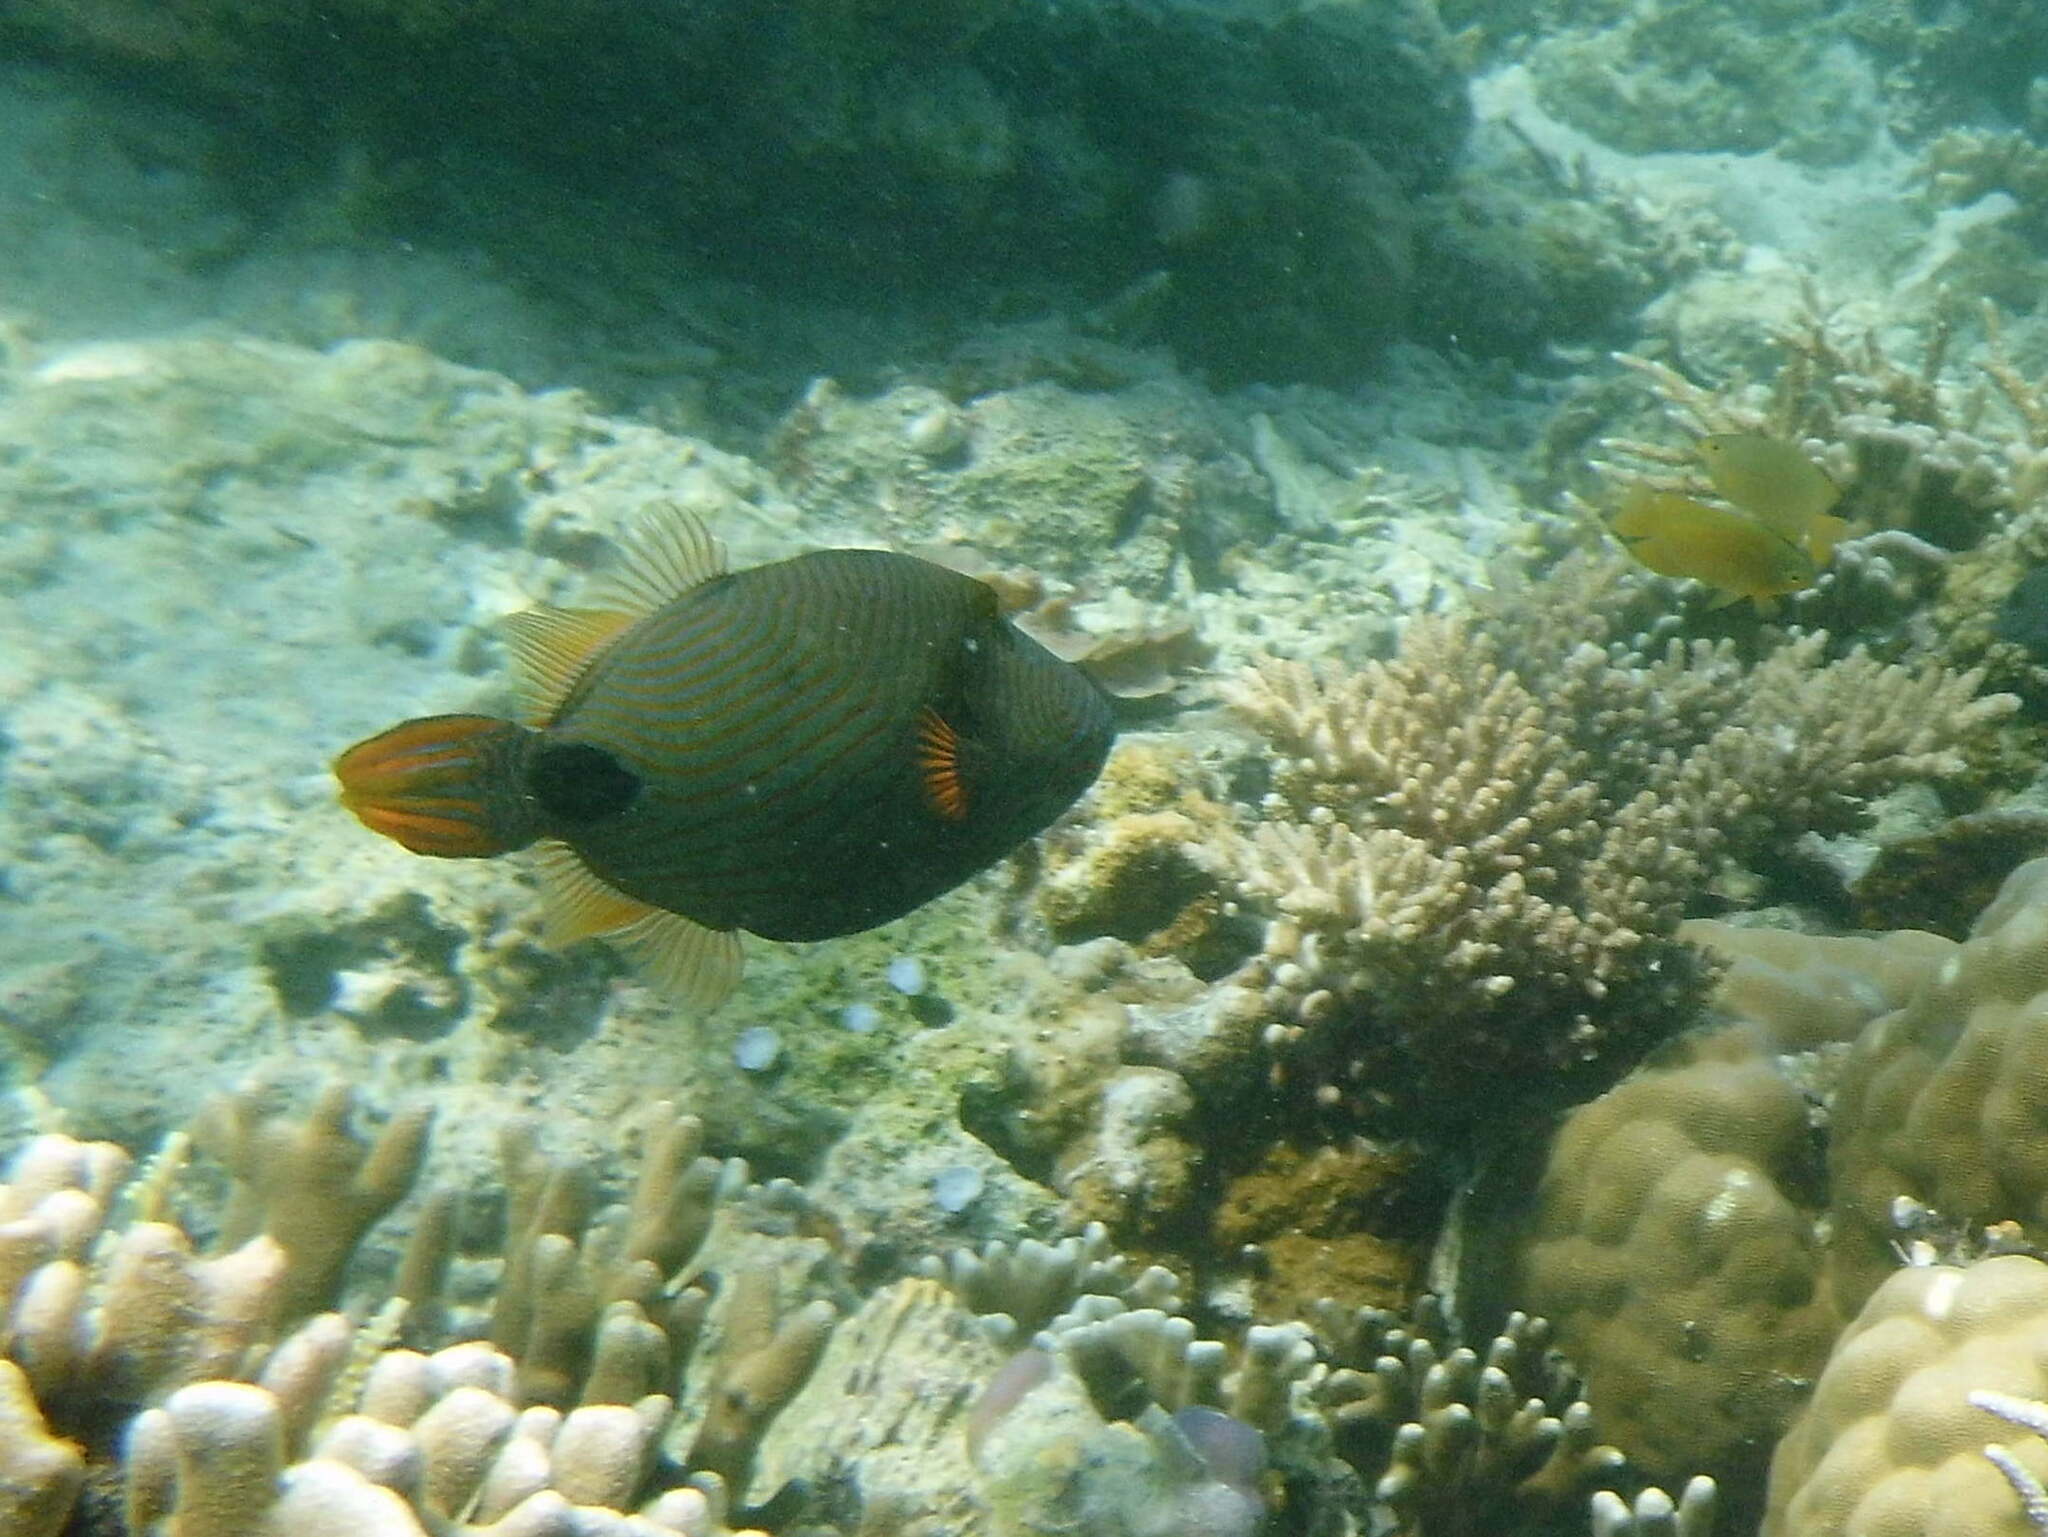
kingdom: Animalia
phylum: Chordata
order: Tetraodontiformes
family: Balistidae
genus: Balistapus
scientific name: Balistapus undulatus
